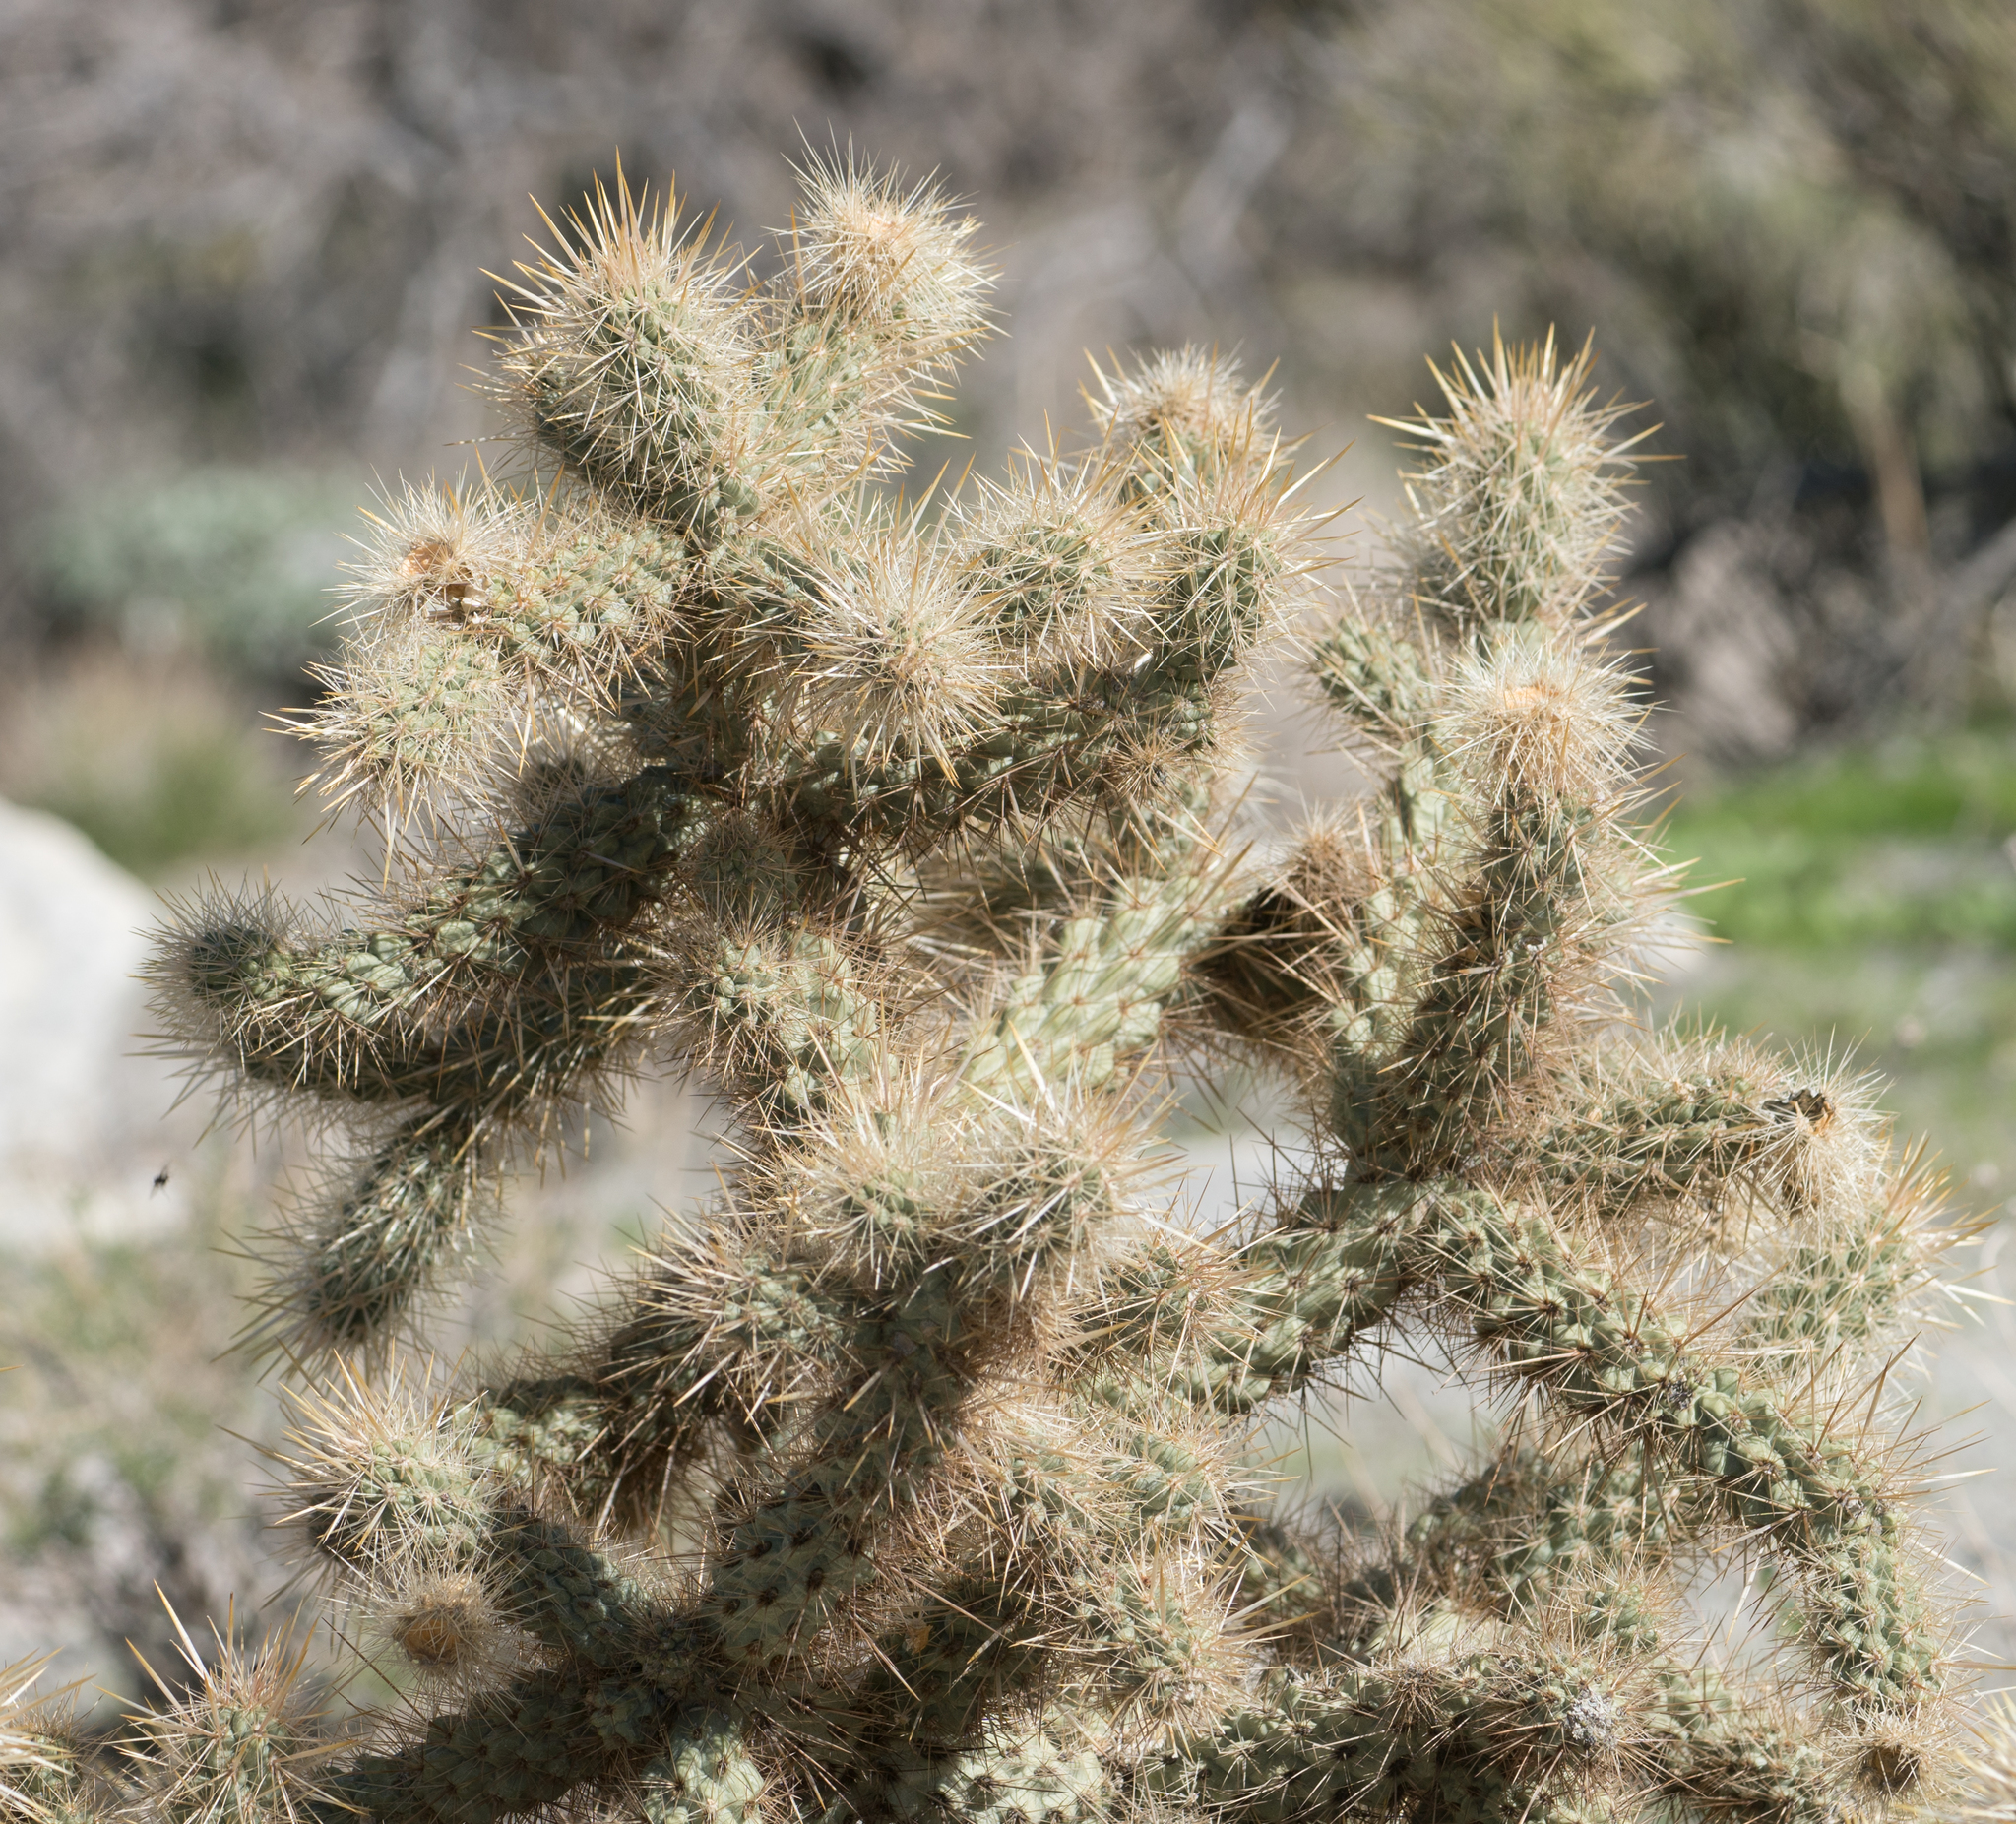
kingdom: Plantae
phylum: Tracheophyta
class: Magnoliopsida
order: Caryophyllales
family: Cactaceae
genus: Cylindropuntia
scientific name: Cylindropuntia echinocarpa
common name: Ground cholla
